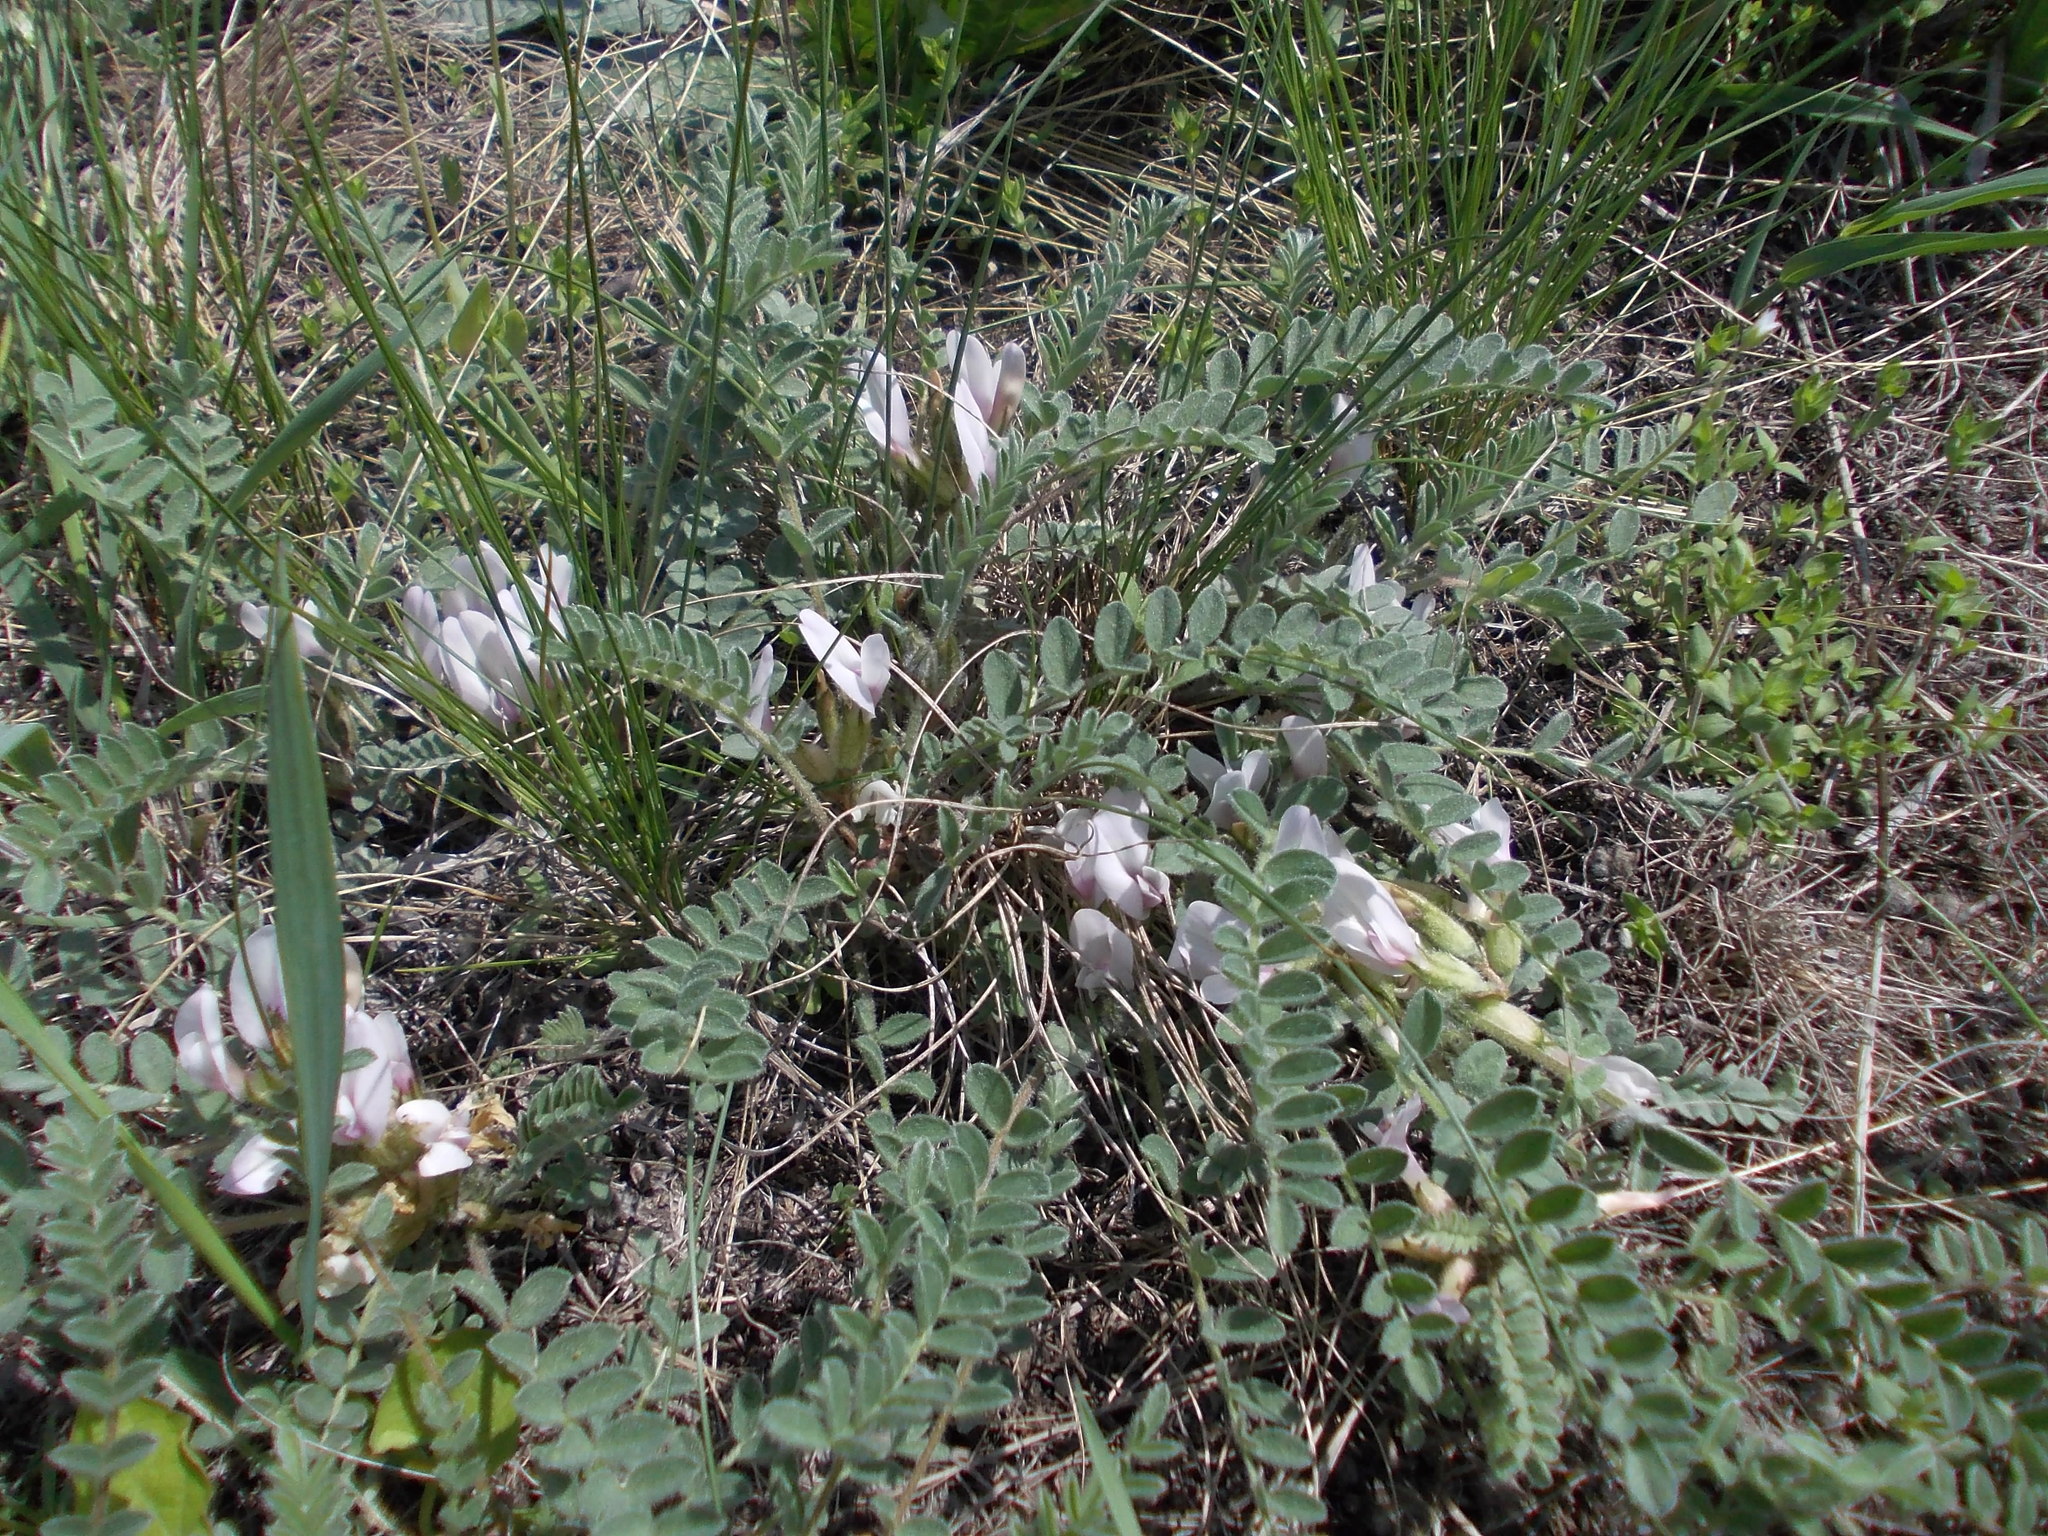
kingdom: Plantae
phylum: Tracheophyta
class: Magnoliopsida
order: Fabales
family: Fabaceae
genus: Astragalus
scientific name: Astragalus testiculatus
